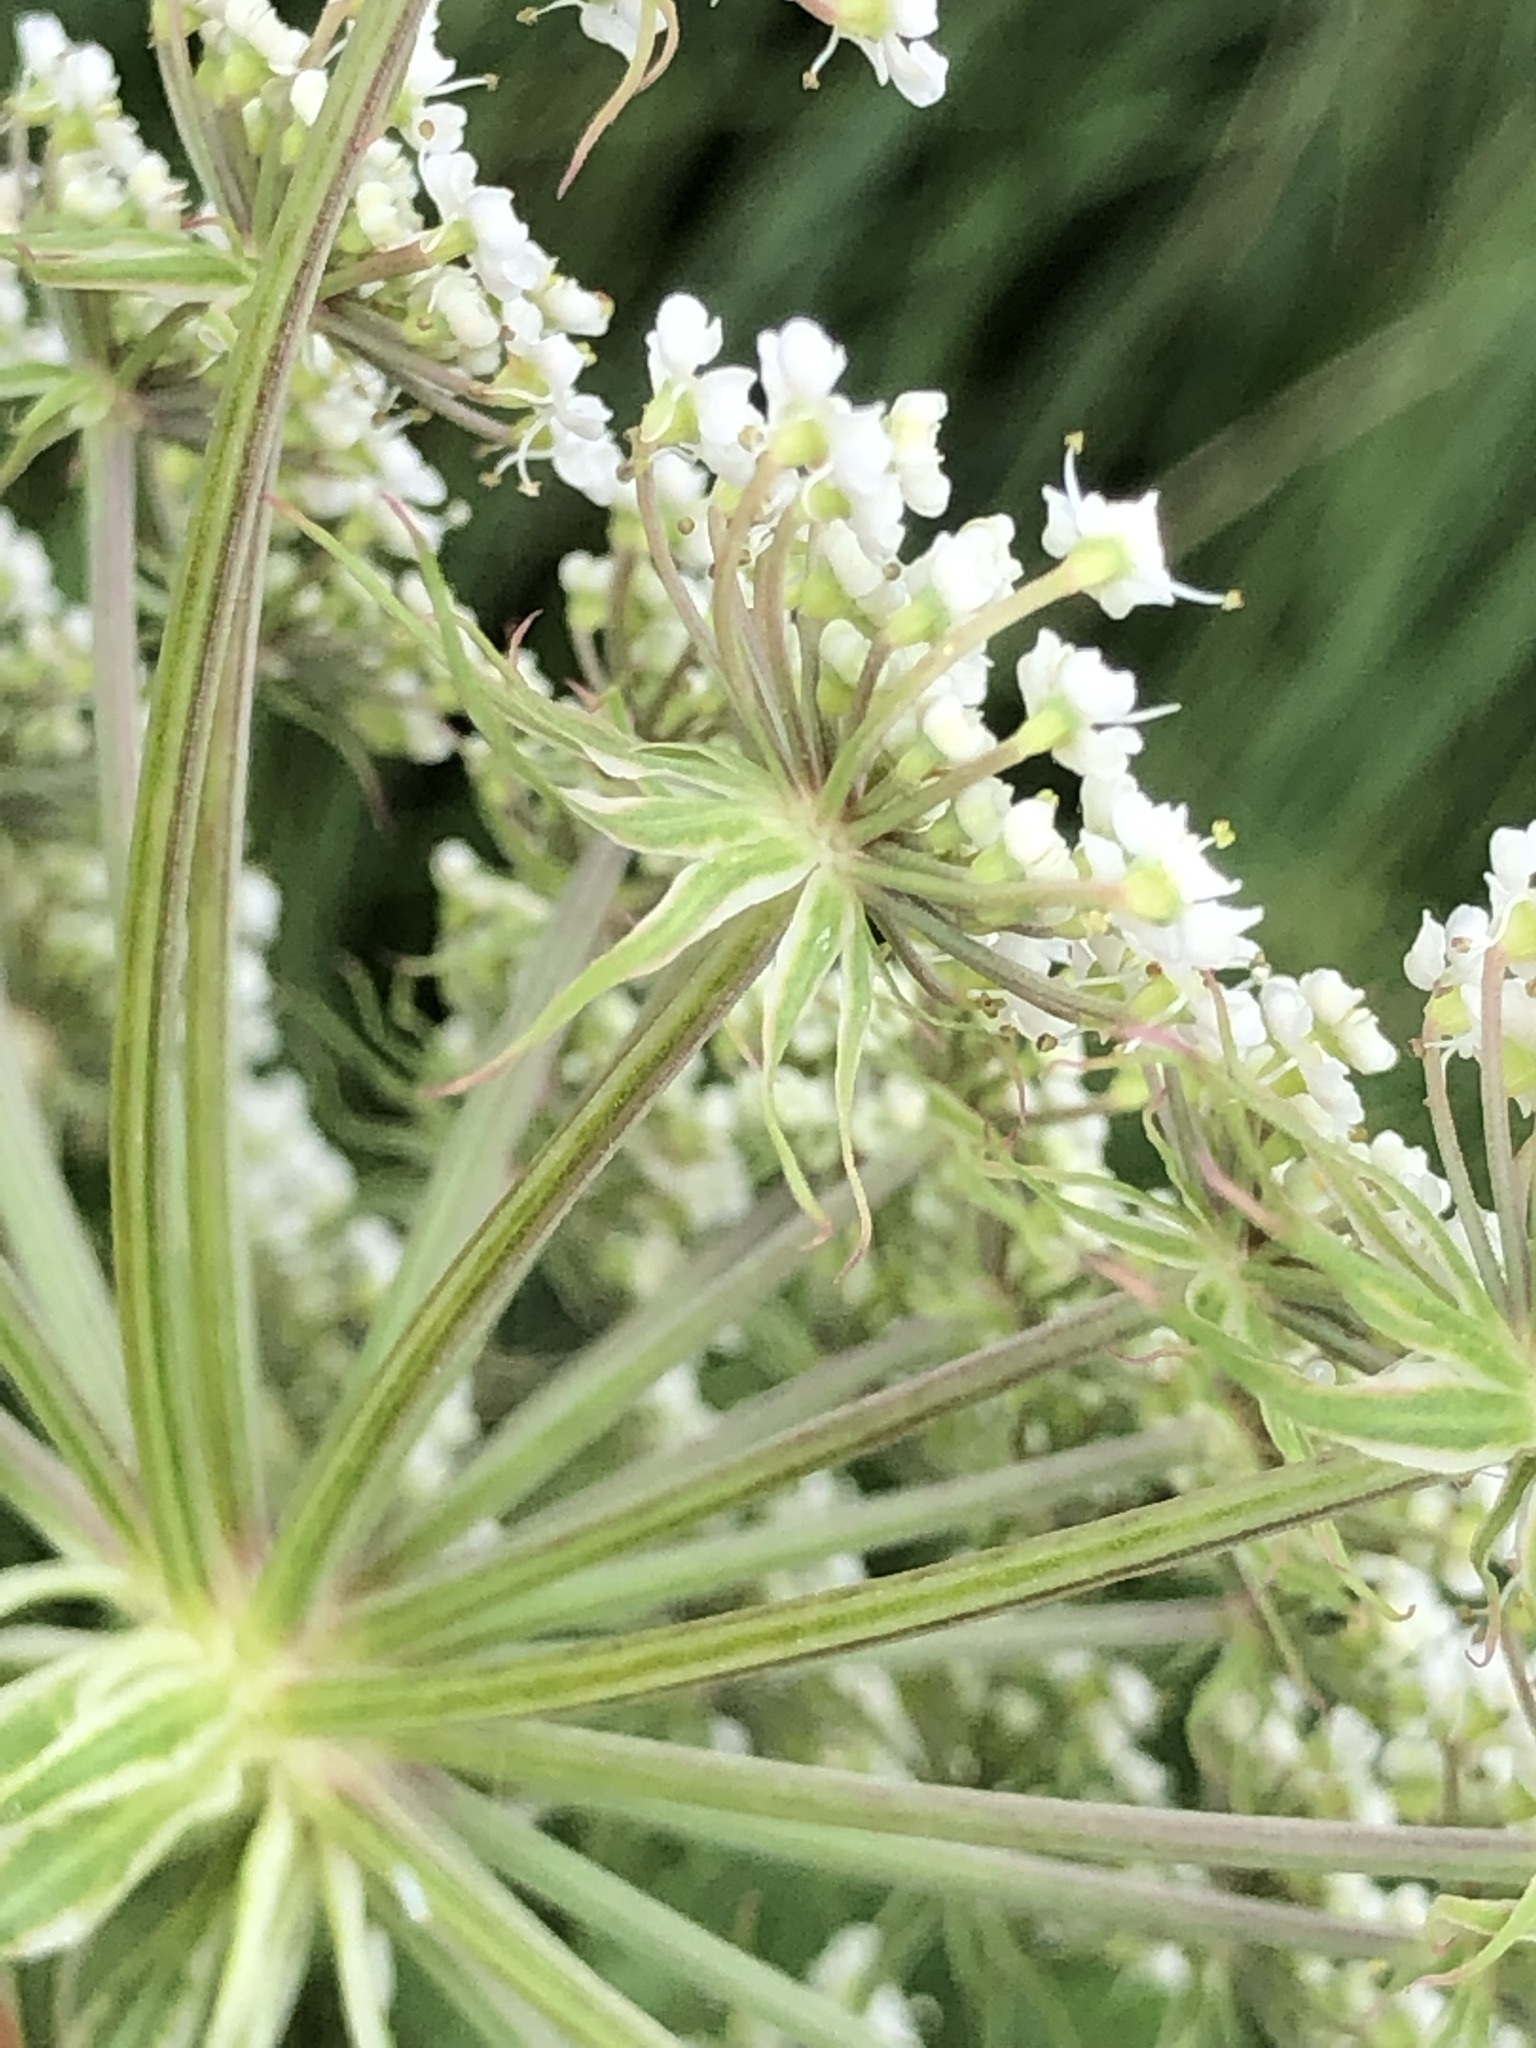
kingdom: Plantae
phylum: Tracheophyta
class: Magnoliopsida
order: Apiales
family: Apiaceae
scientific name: Apiaceae
